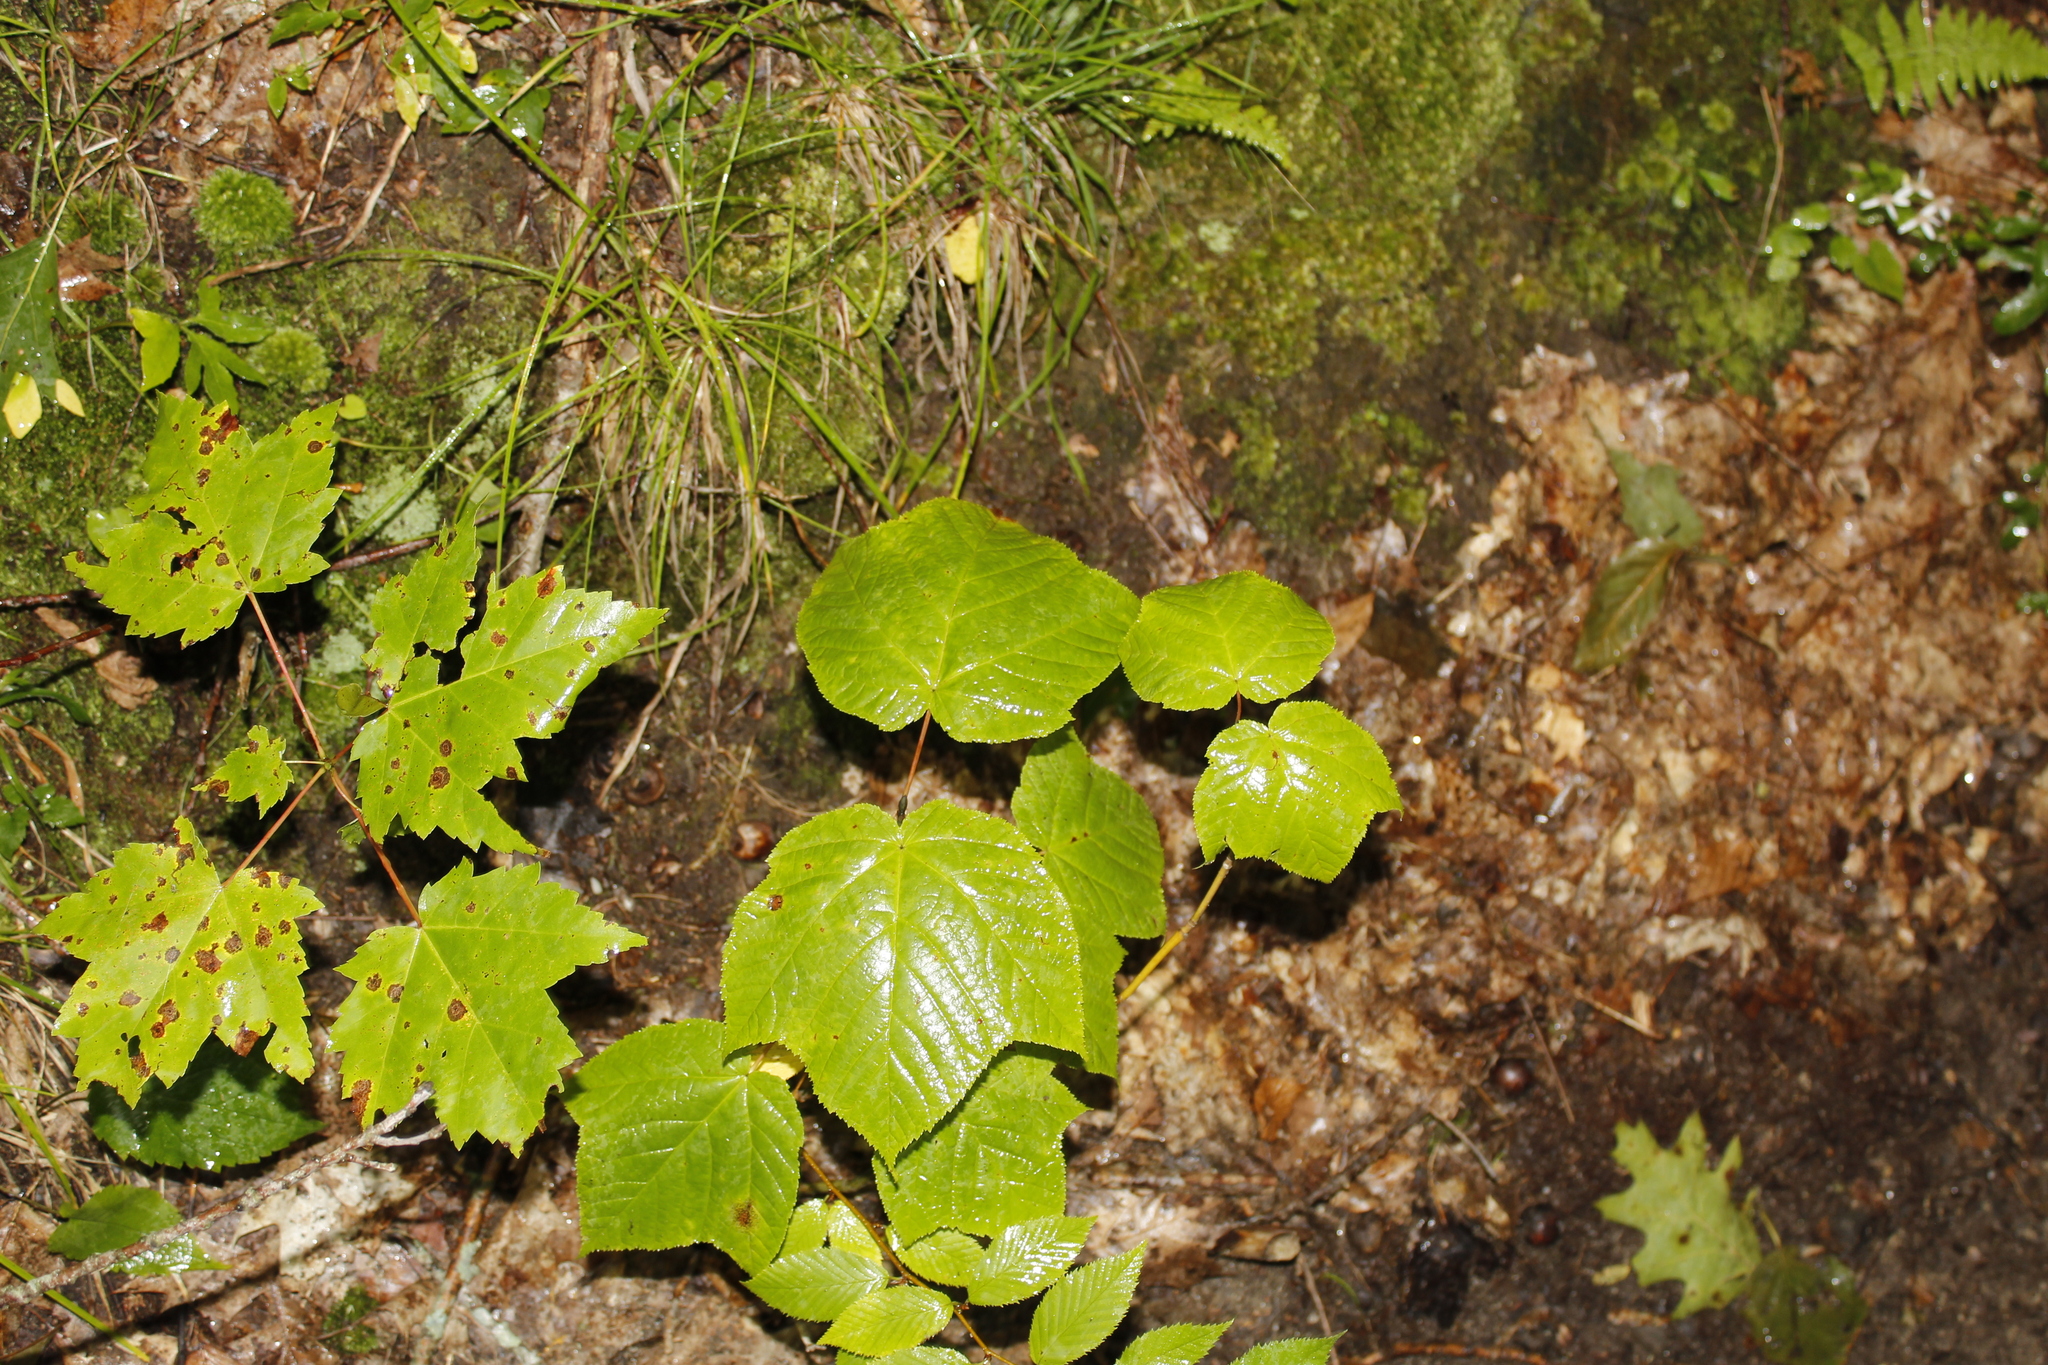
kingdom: Plantae
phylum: Tracheophyta
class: Magnoliopsida
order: Sapindales
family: Sapindaceae
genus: Acer
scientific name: Acer pensylvanicum
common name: Moosewood
